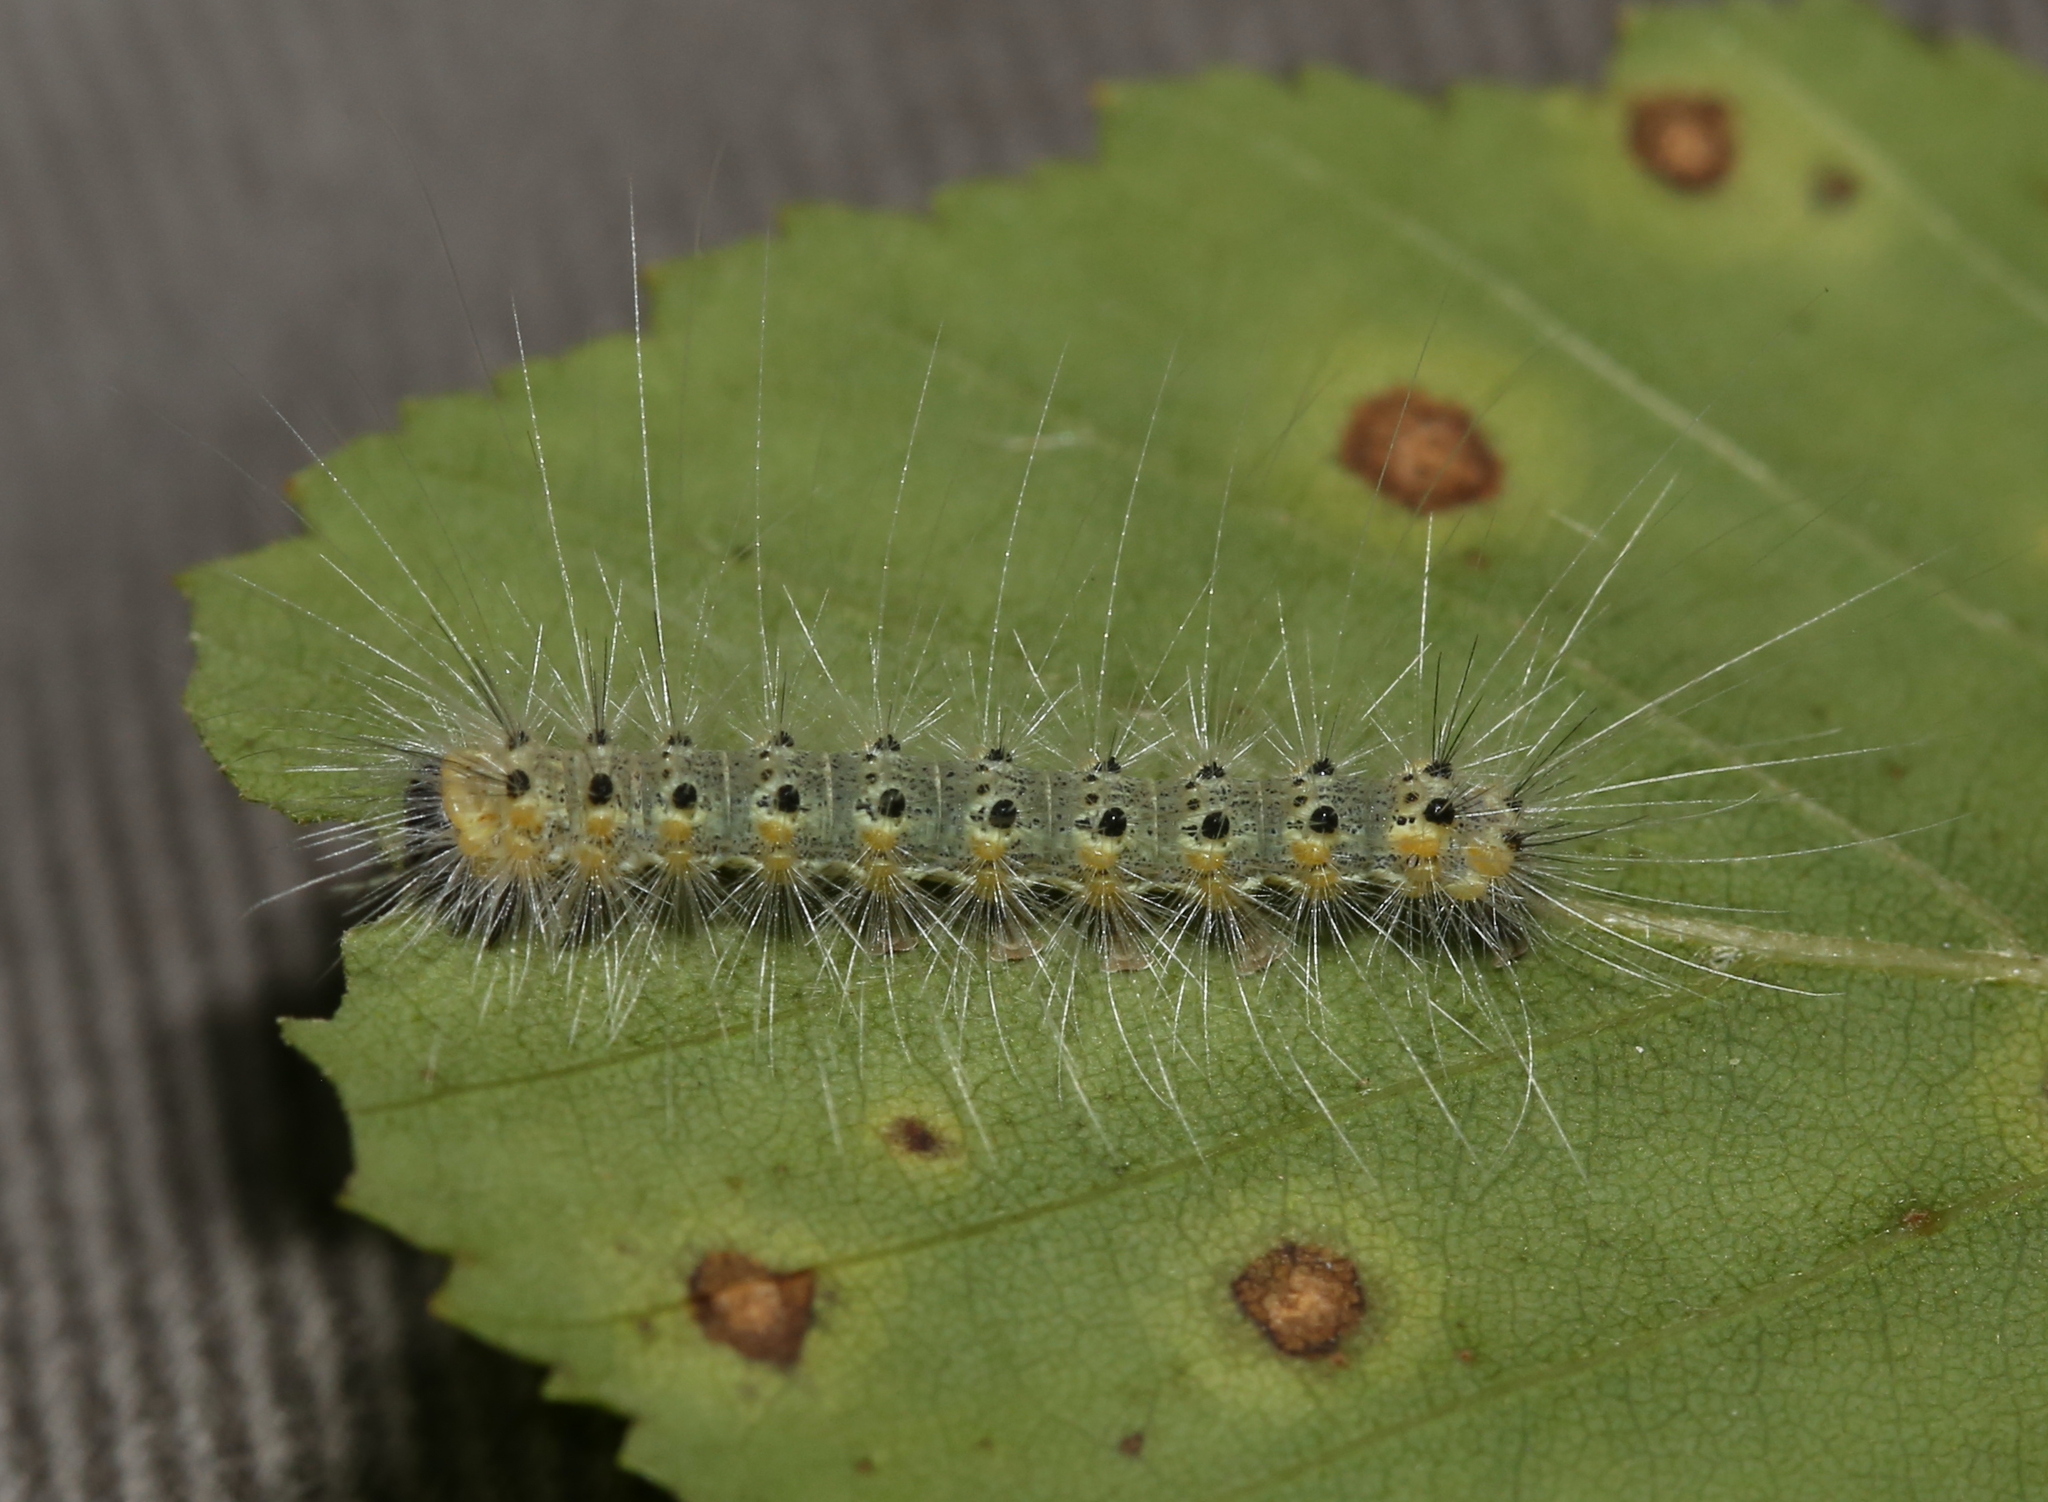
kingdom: Animalia
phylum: Arthropoda
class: Insecta
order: Lepidoptera
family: Erebidae
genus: Hyphantria
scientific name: Hyphantria cunea
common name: American white moth
